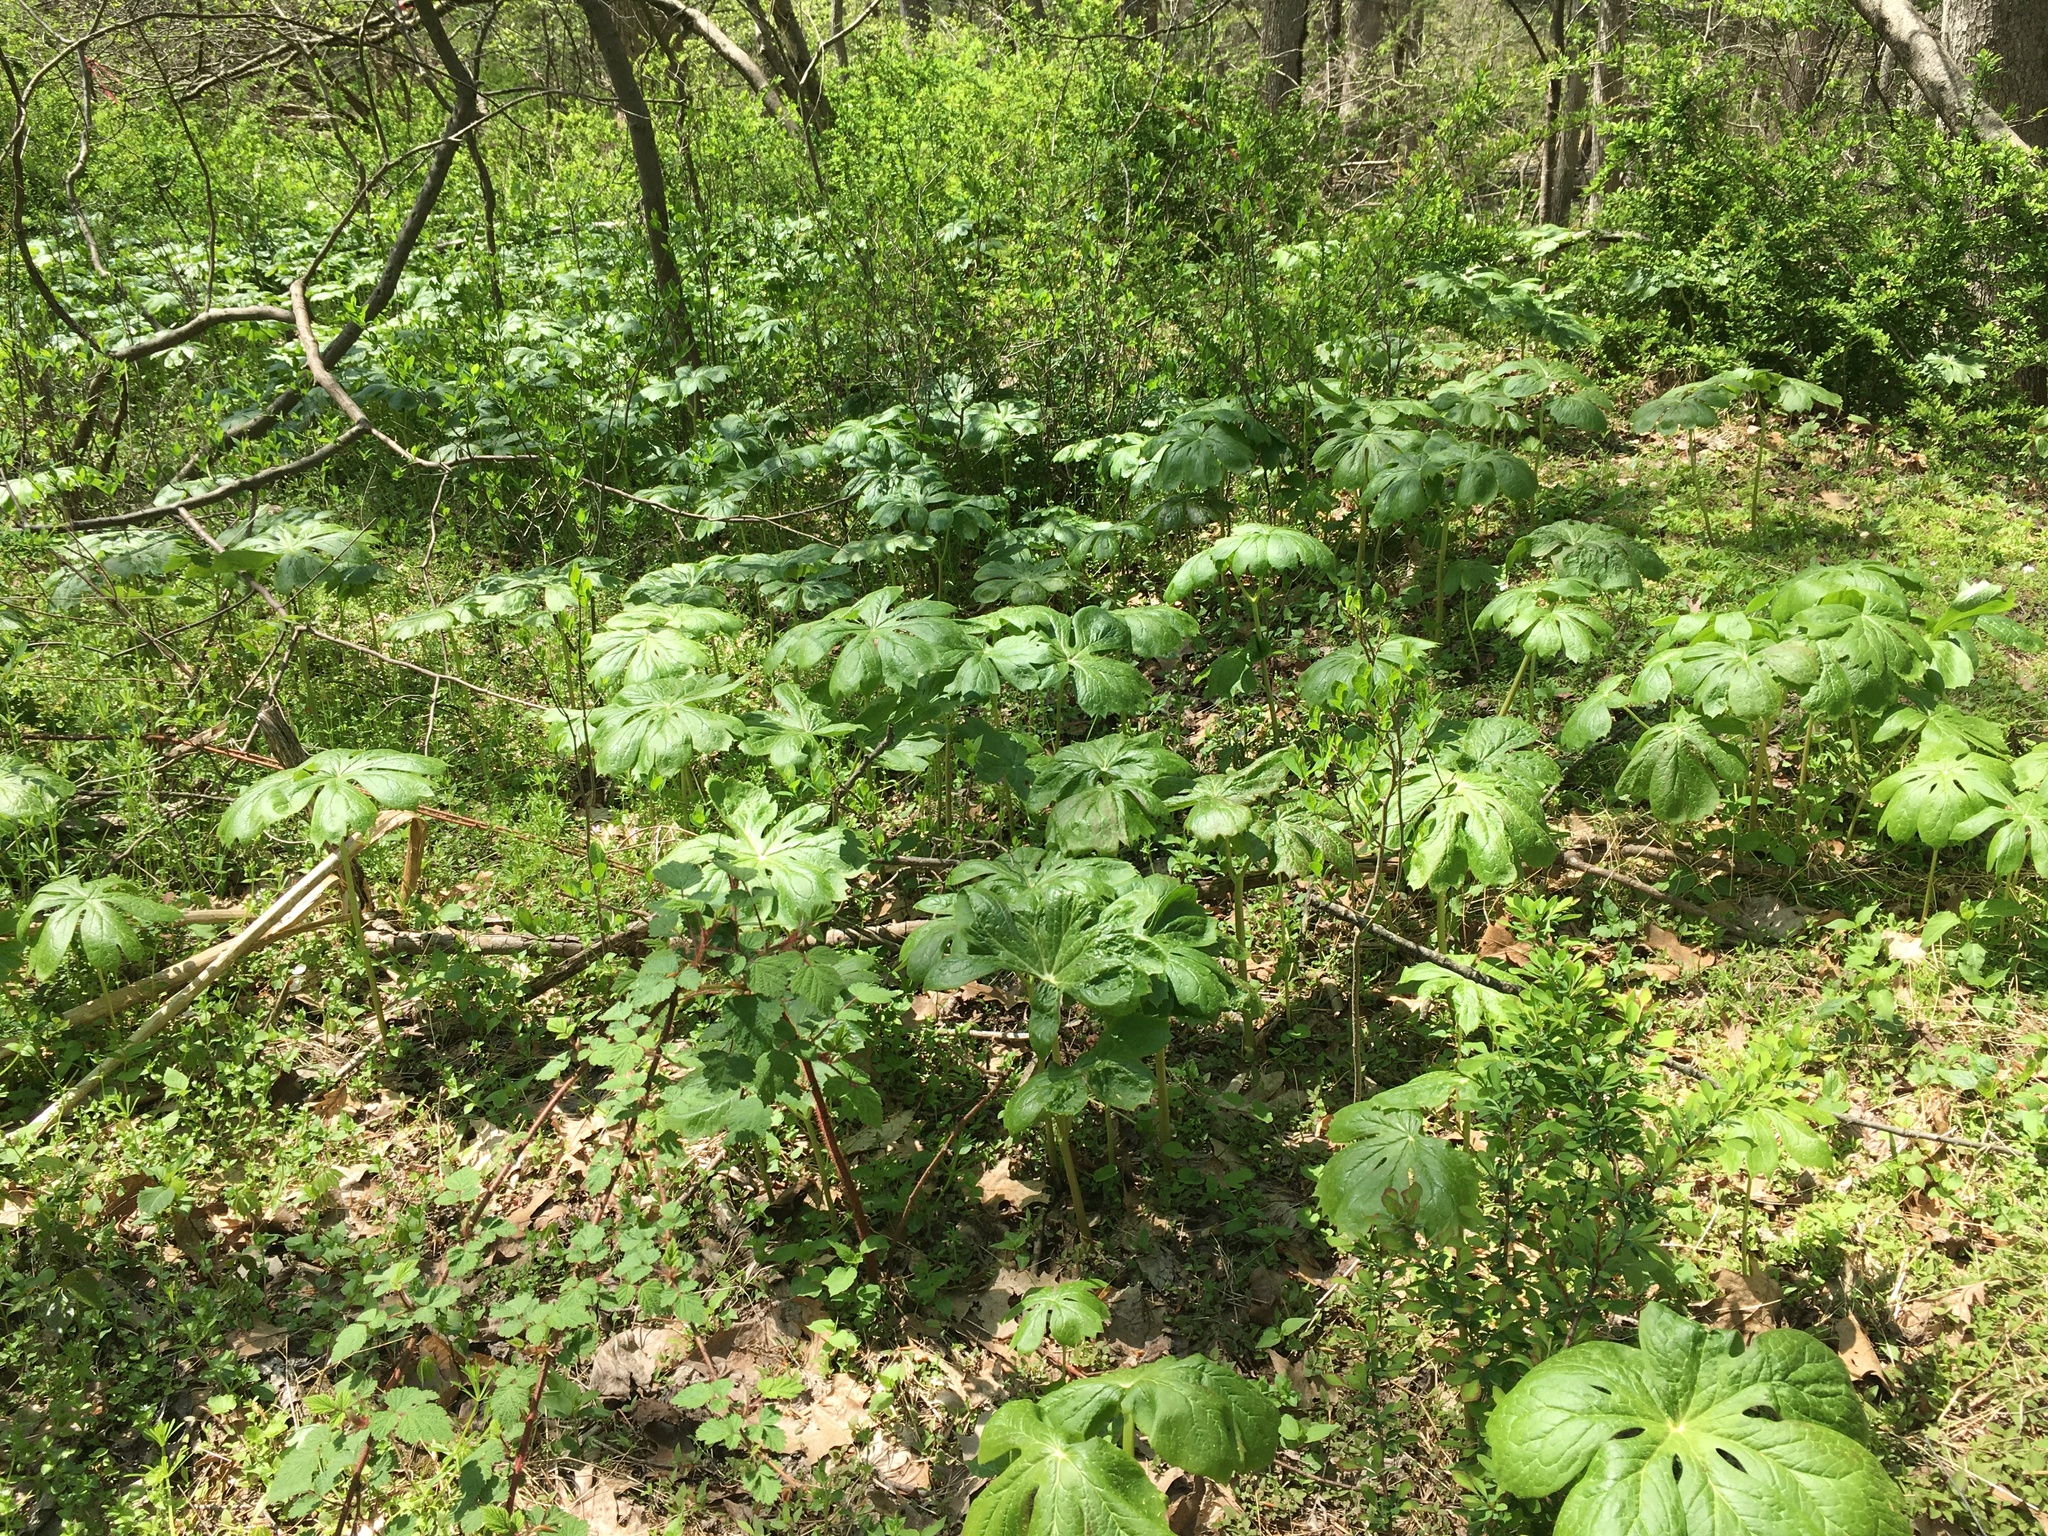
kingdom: Plantae
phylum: Tracheophyta
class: Magnoliopsida
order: Ranunculales
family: Berberidaceae
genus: Podophyllum
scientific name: Podophyllum peltatum
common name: Wild mandrake
